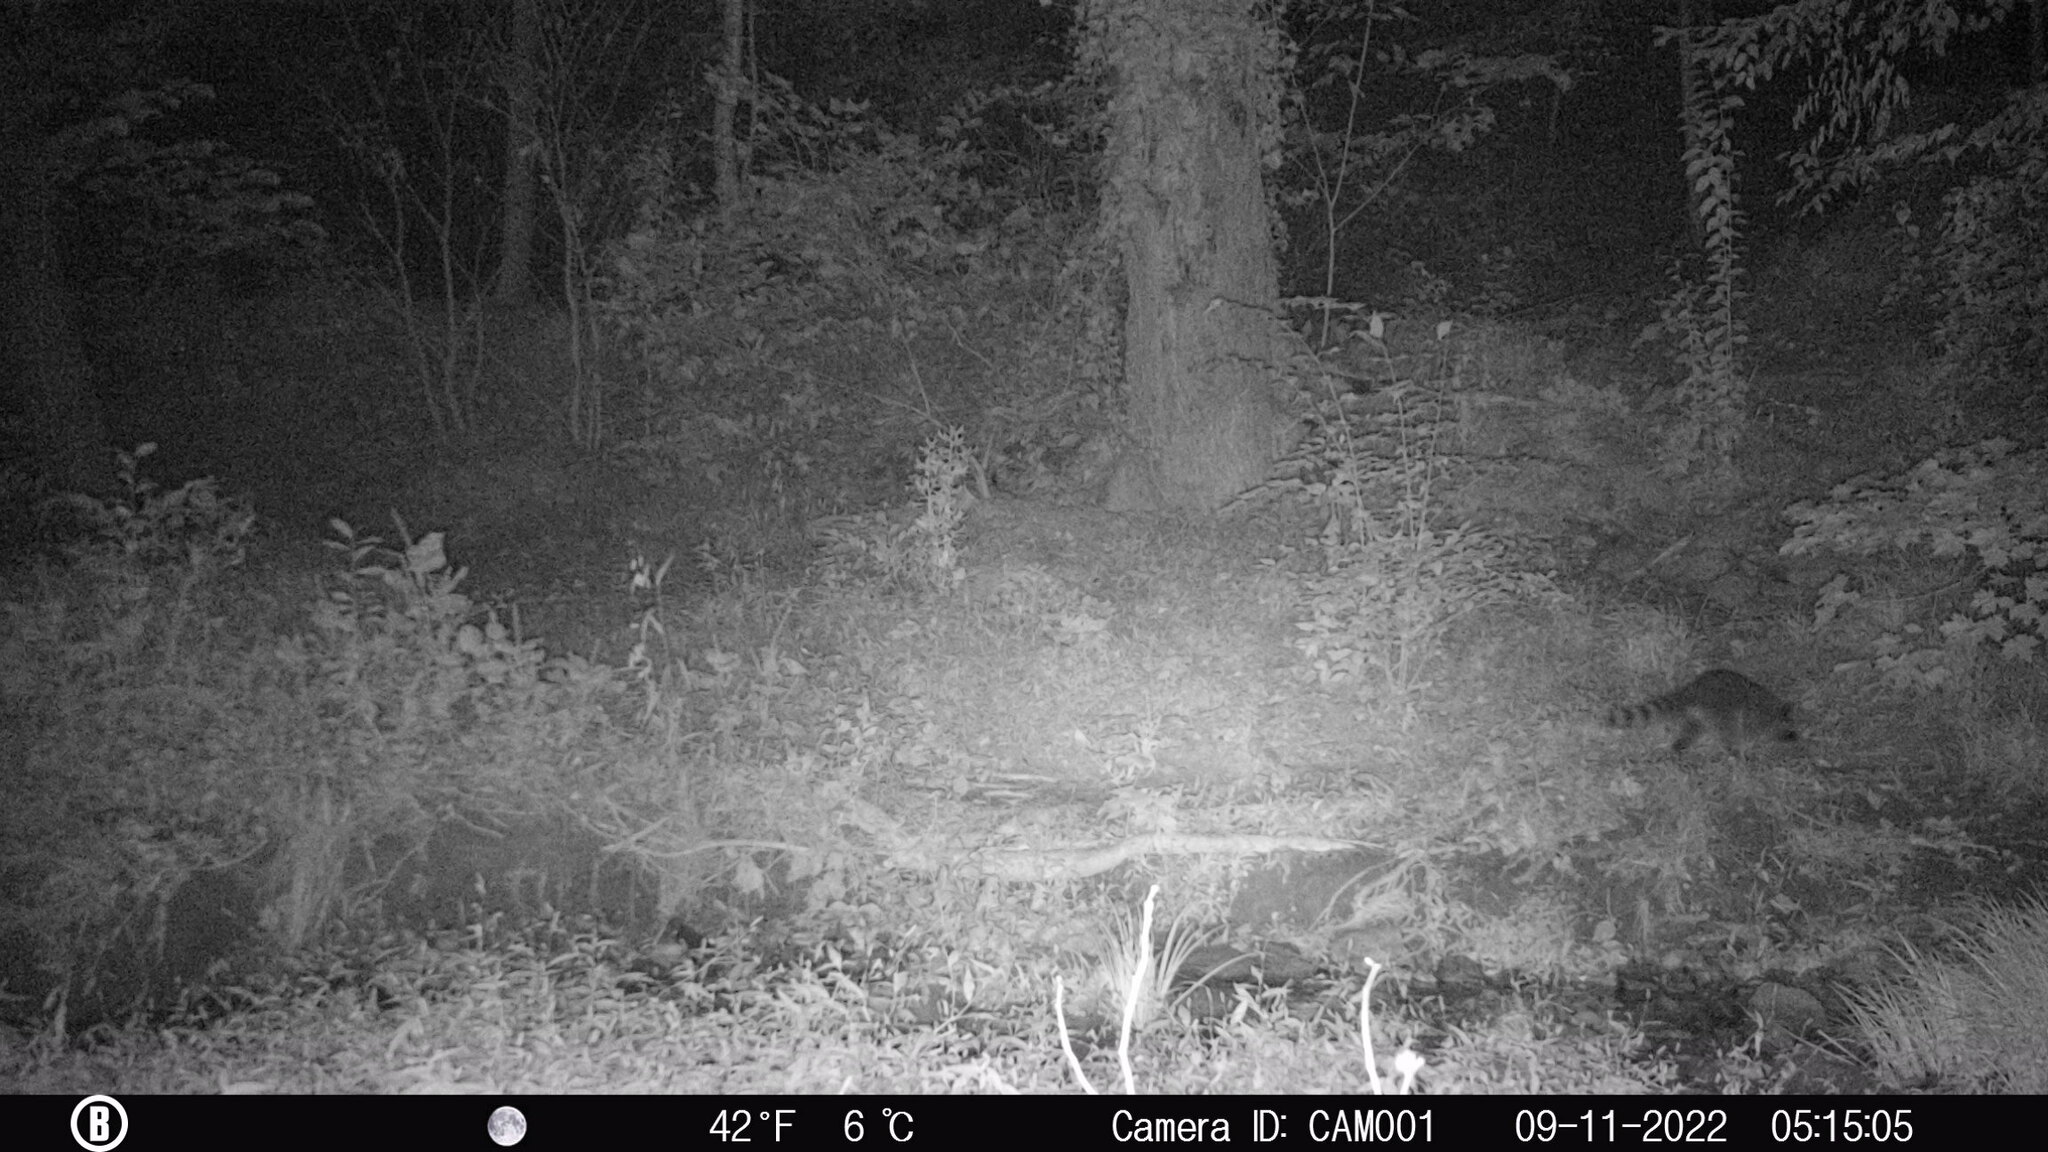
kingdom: Animalia
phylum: Chordata
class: Mammalia
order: Carnivora
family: Procyonidae
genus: Procyon
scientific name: Procyon lotor
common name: Raccoon
